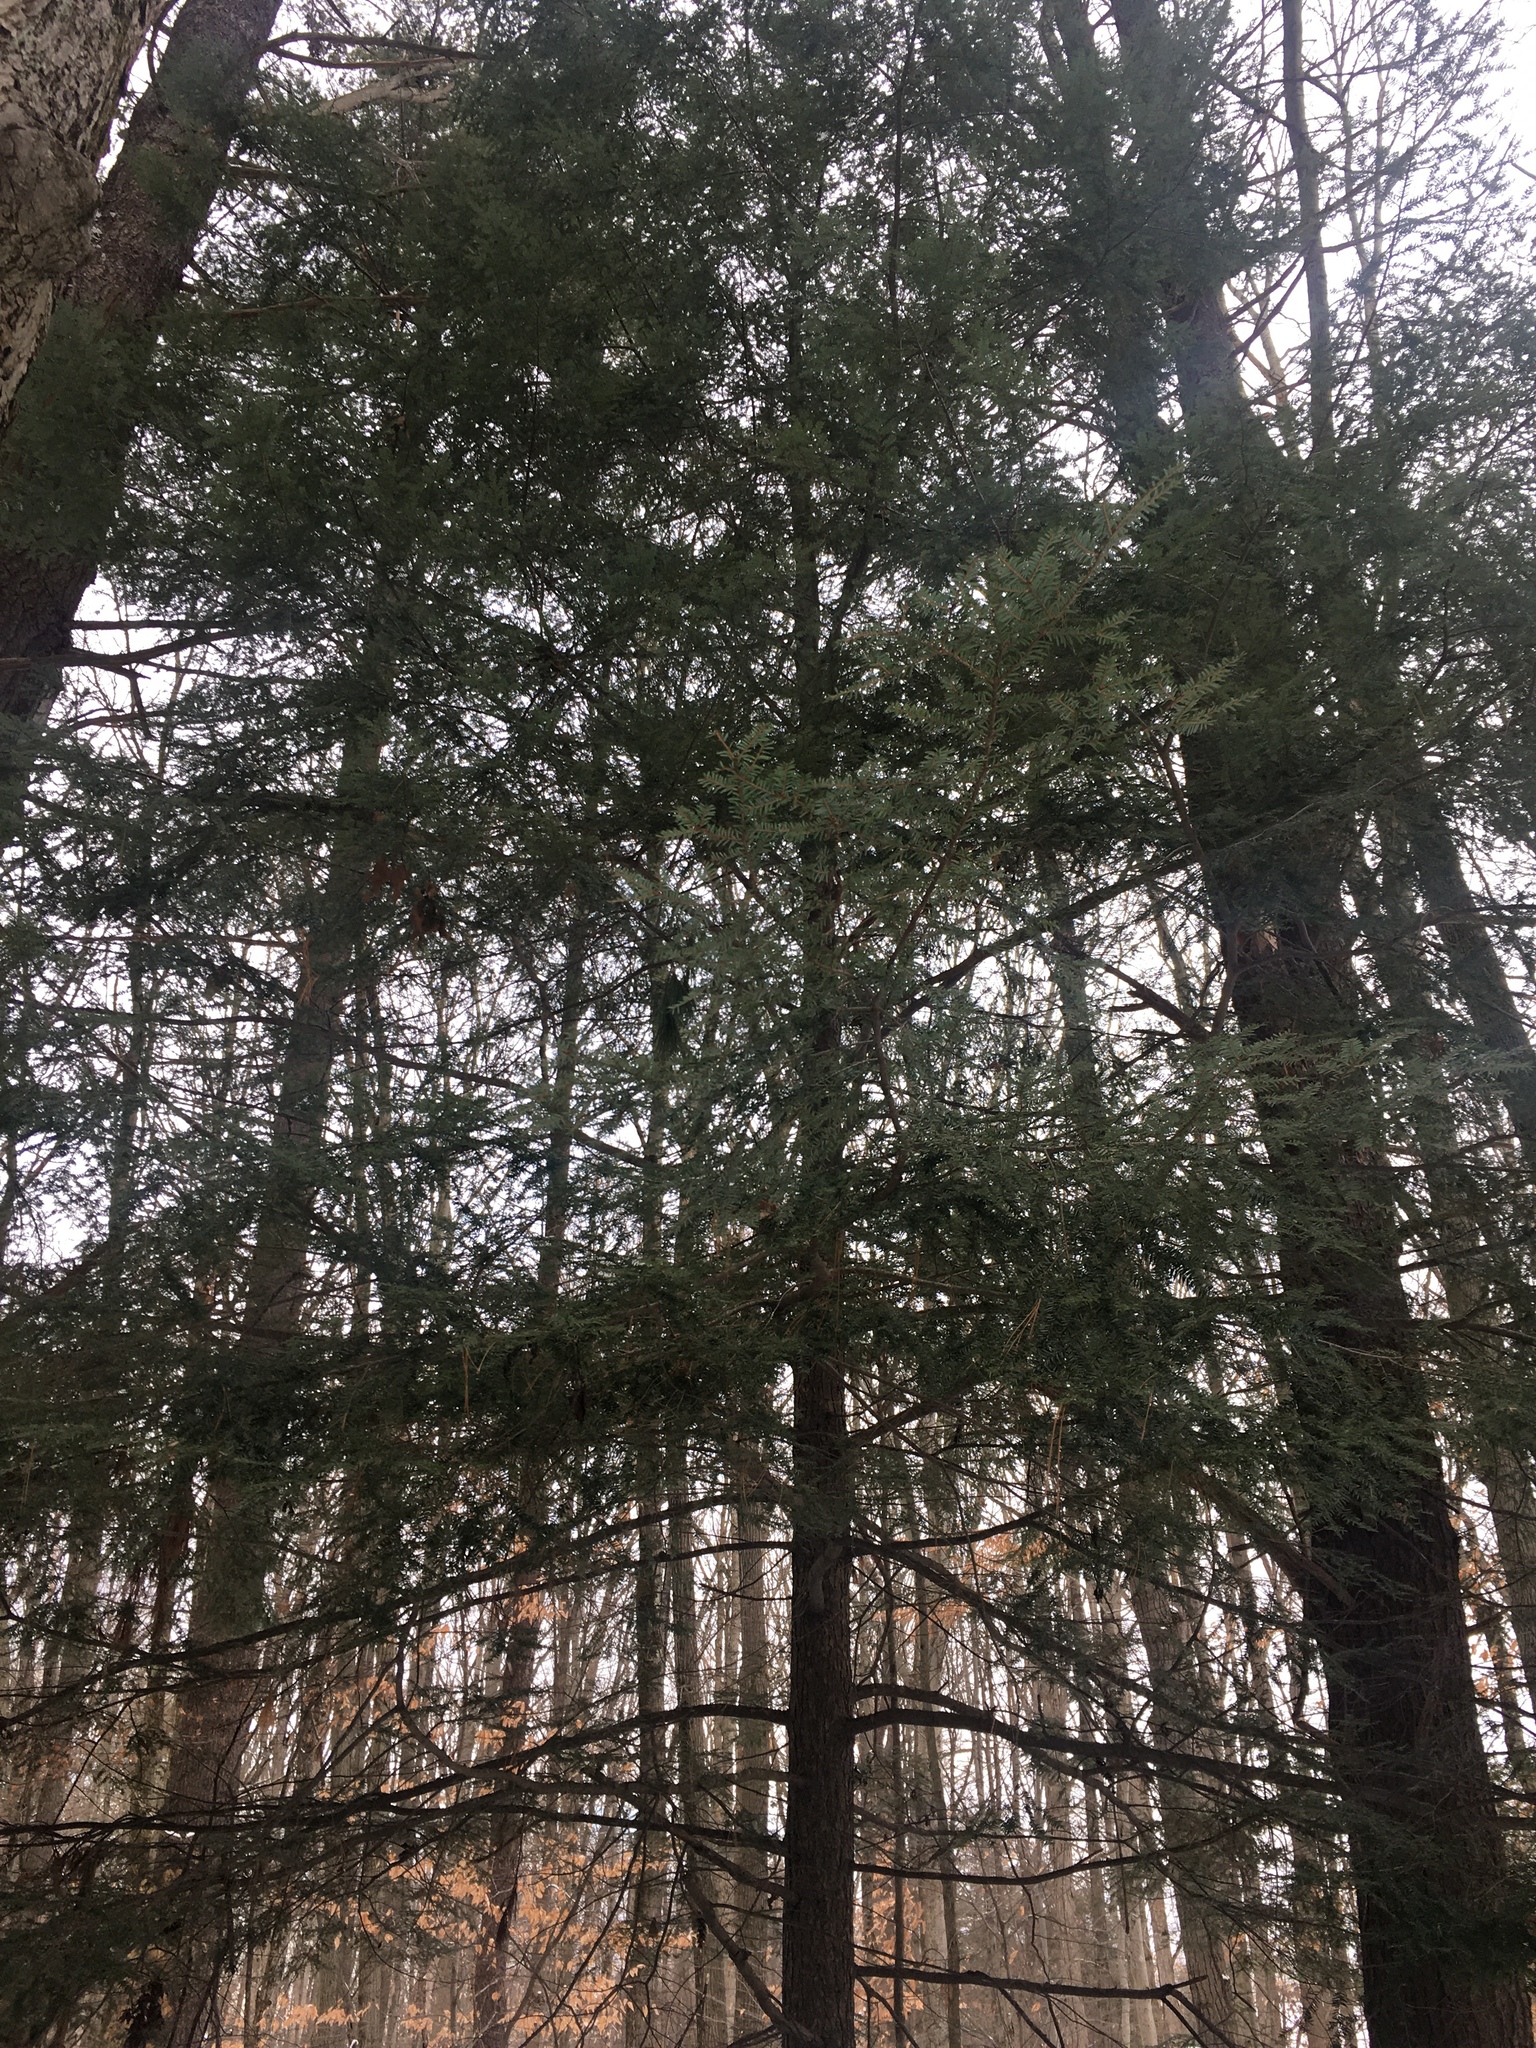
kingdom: Plantae
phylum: Tracheophyta
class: Pinopsida
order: Pinales
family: Pinaceae
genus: Tsuga
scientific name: Tsuga canadensis
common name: Eastern hemlock
